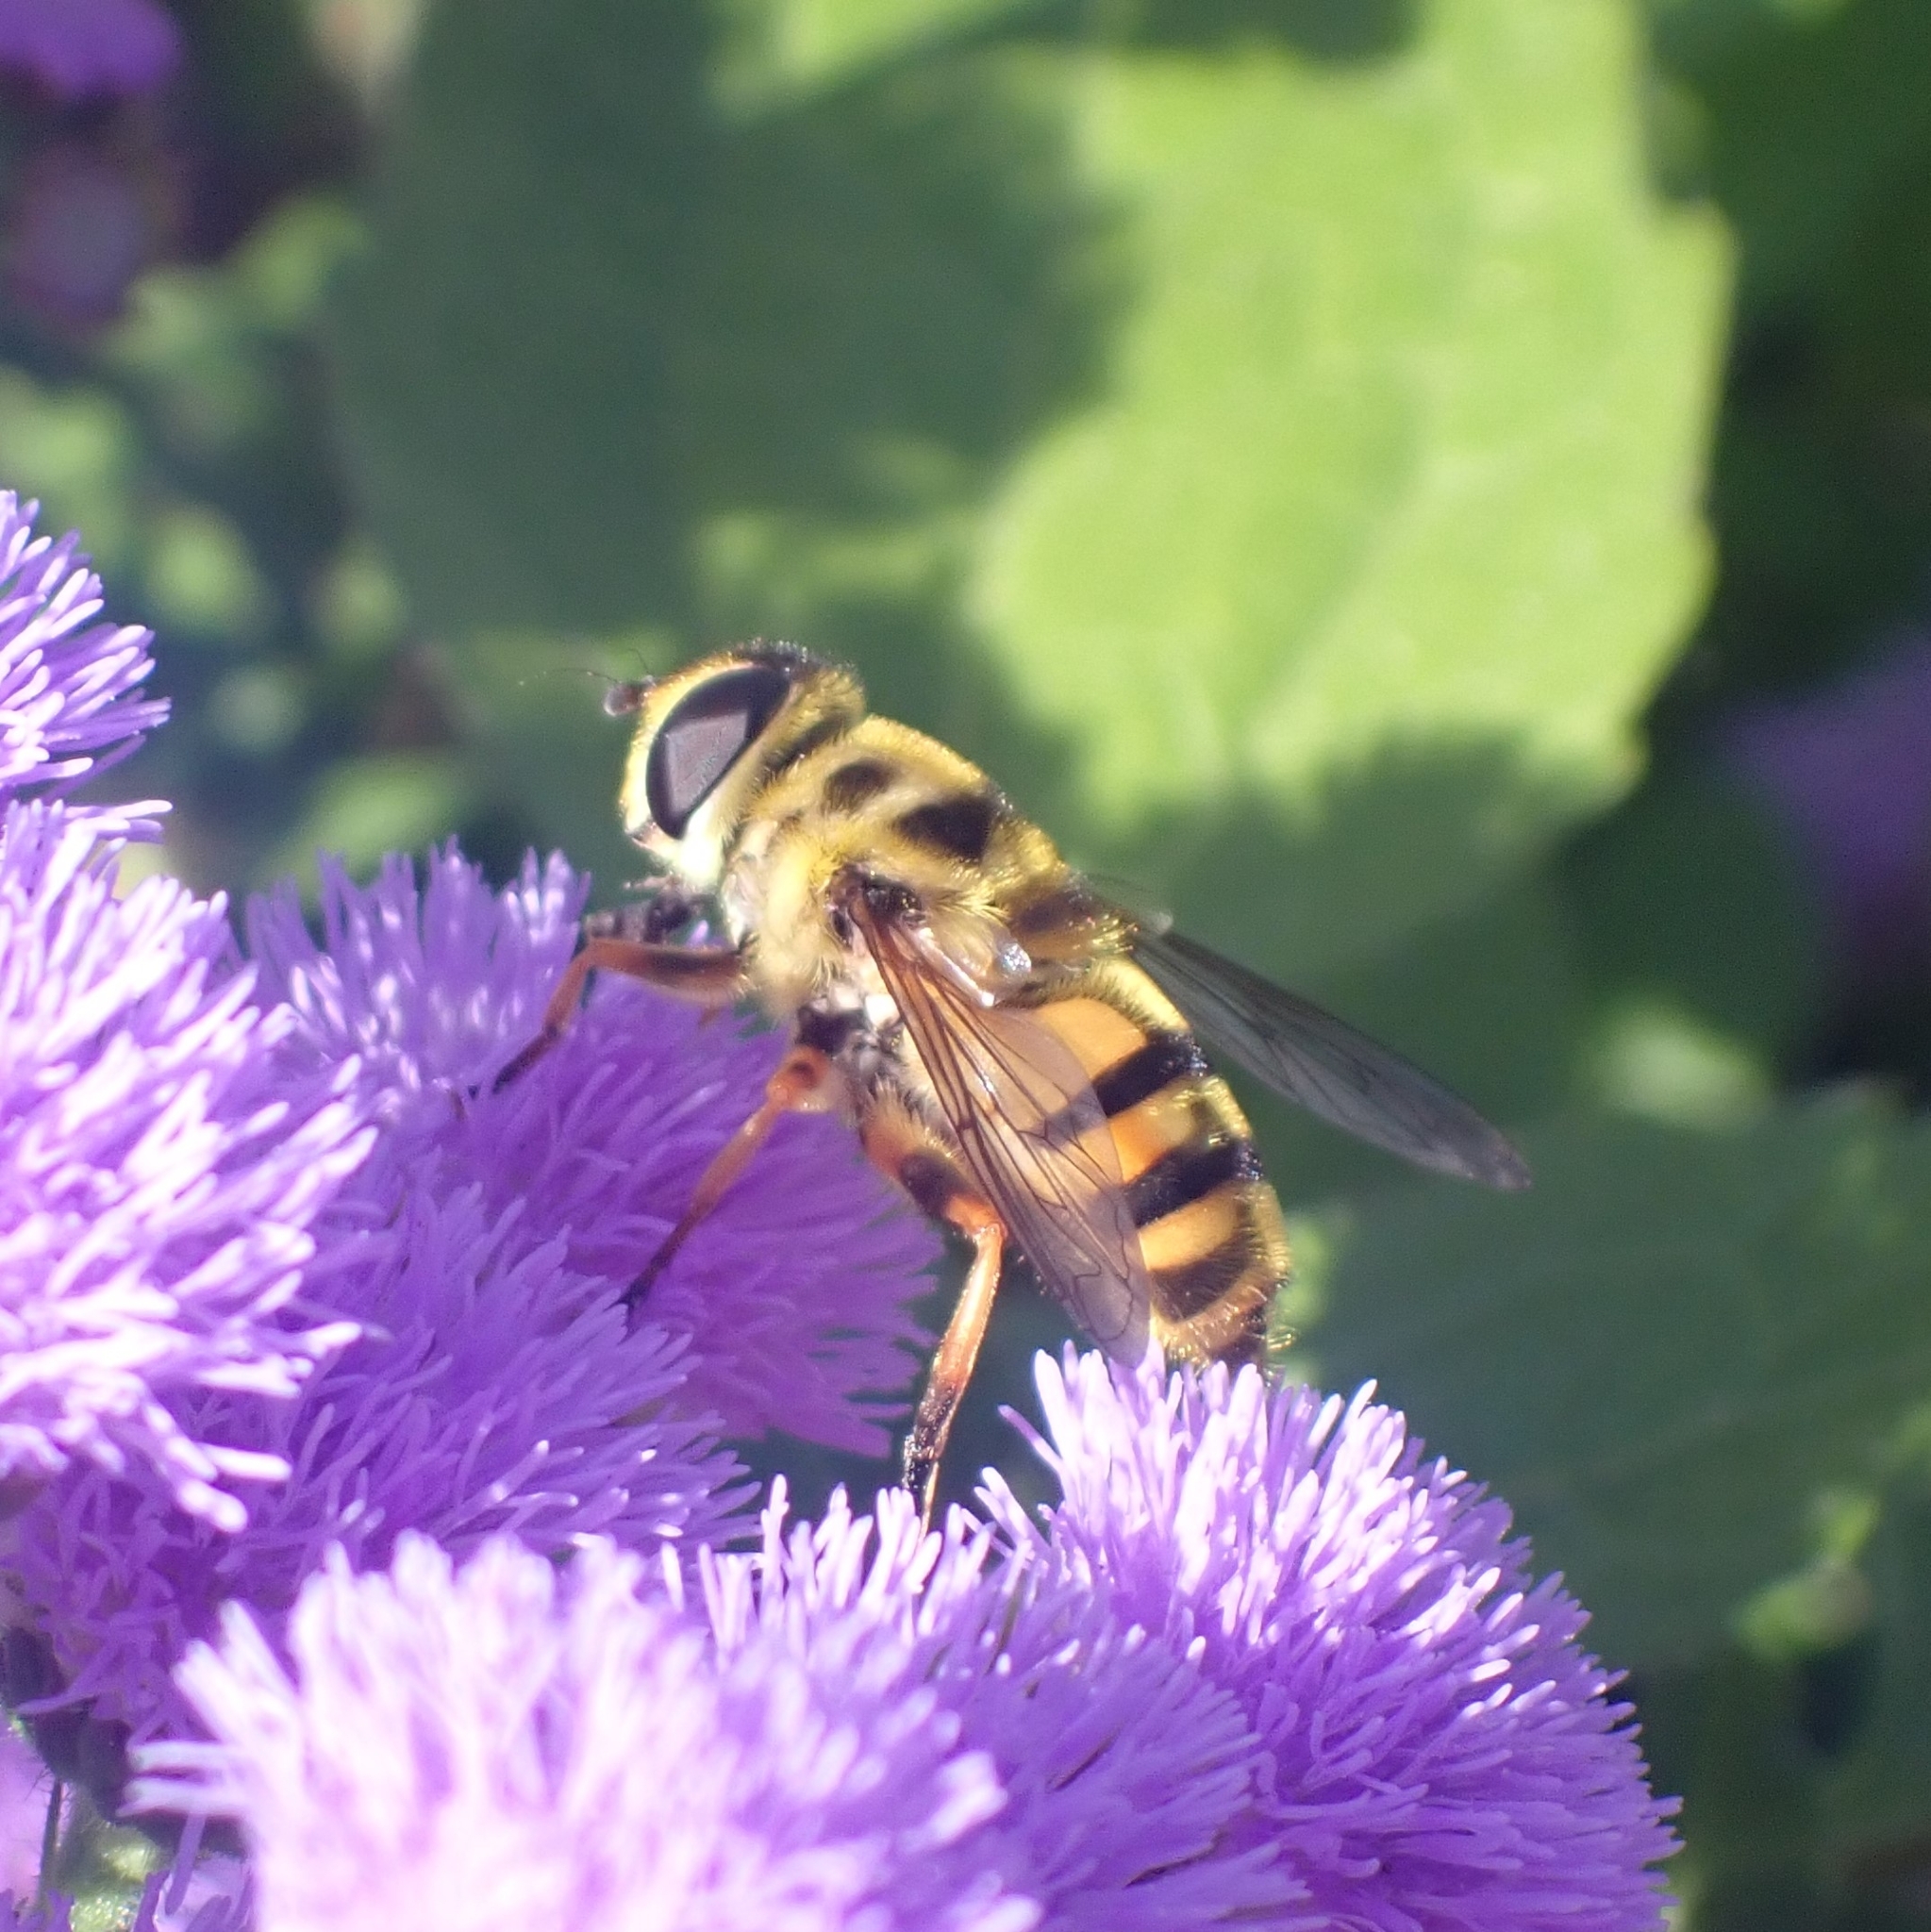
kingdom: Animalia
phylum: Arthropoda
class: Insecta
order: Diptera
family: Syrphidae
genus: Myathropa
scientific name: Myathropa florea
